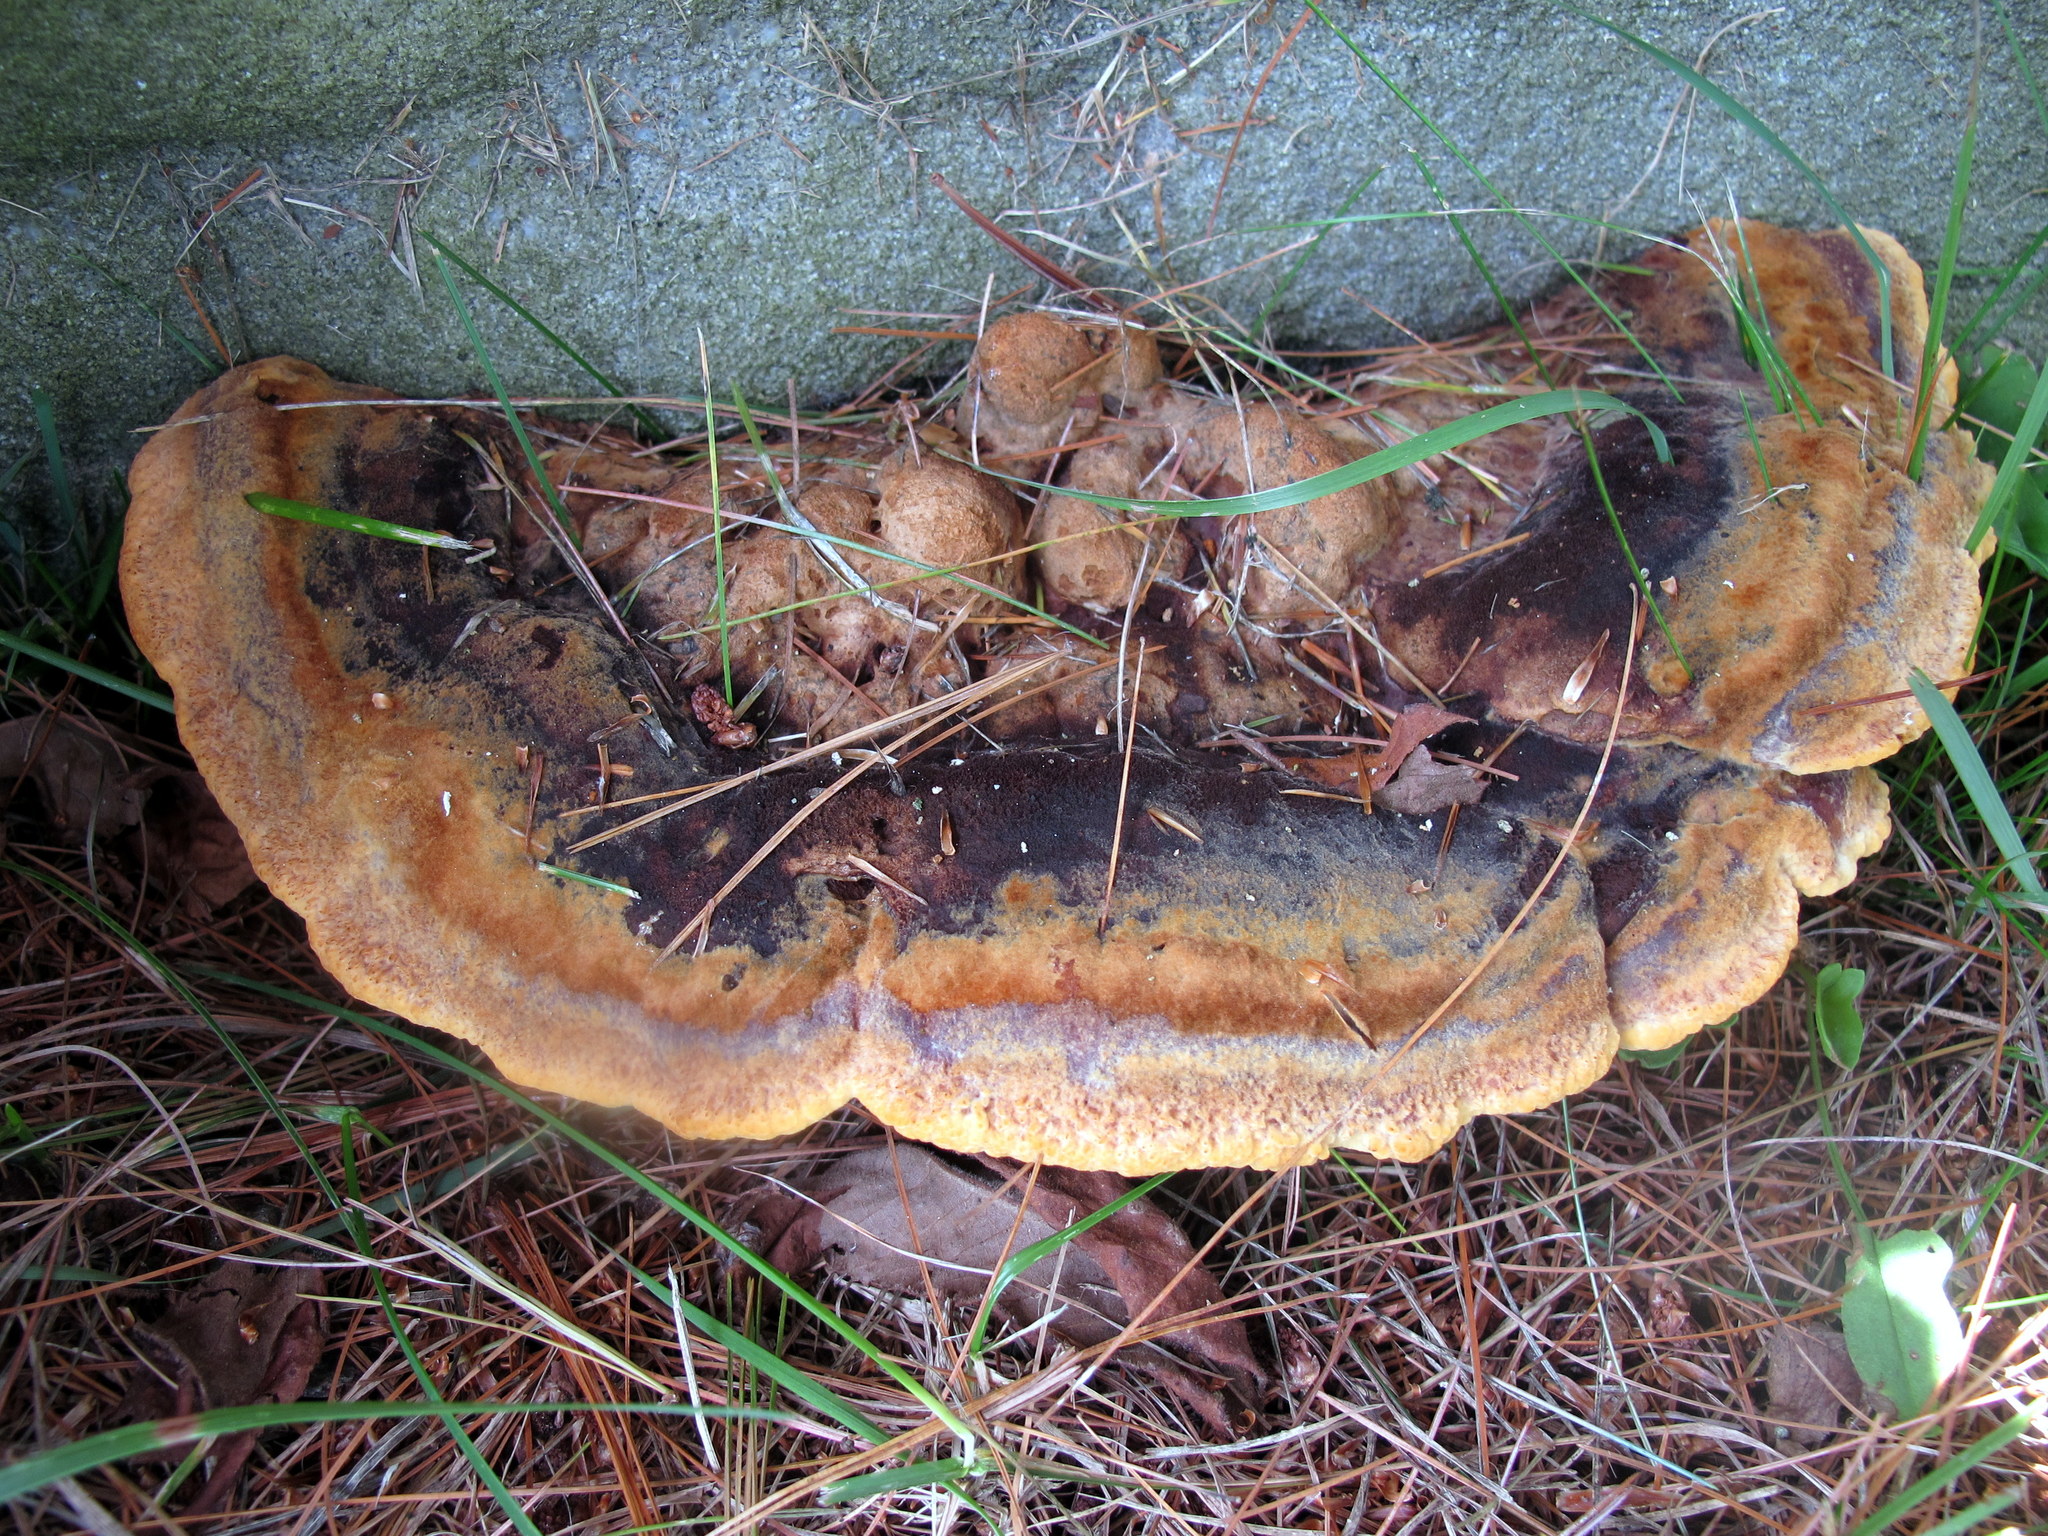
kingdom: Fungi
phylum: Basidiomycota
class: Agaricomycetes
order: Polyporales
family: Laetiporaceae
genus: Phaeolus
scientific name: Phaeolus schweinitzii
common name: Dyer's mazegill
